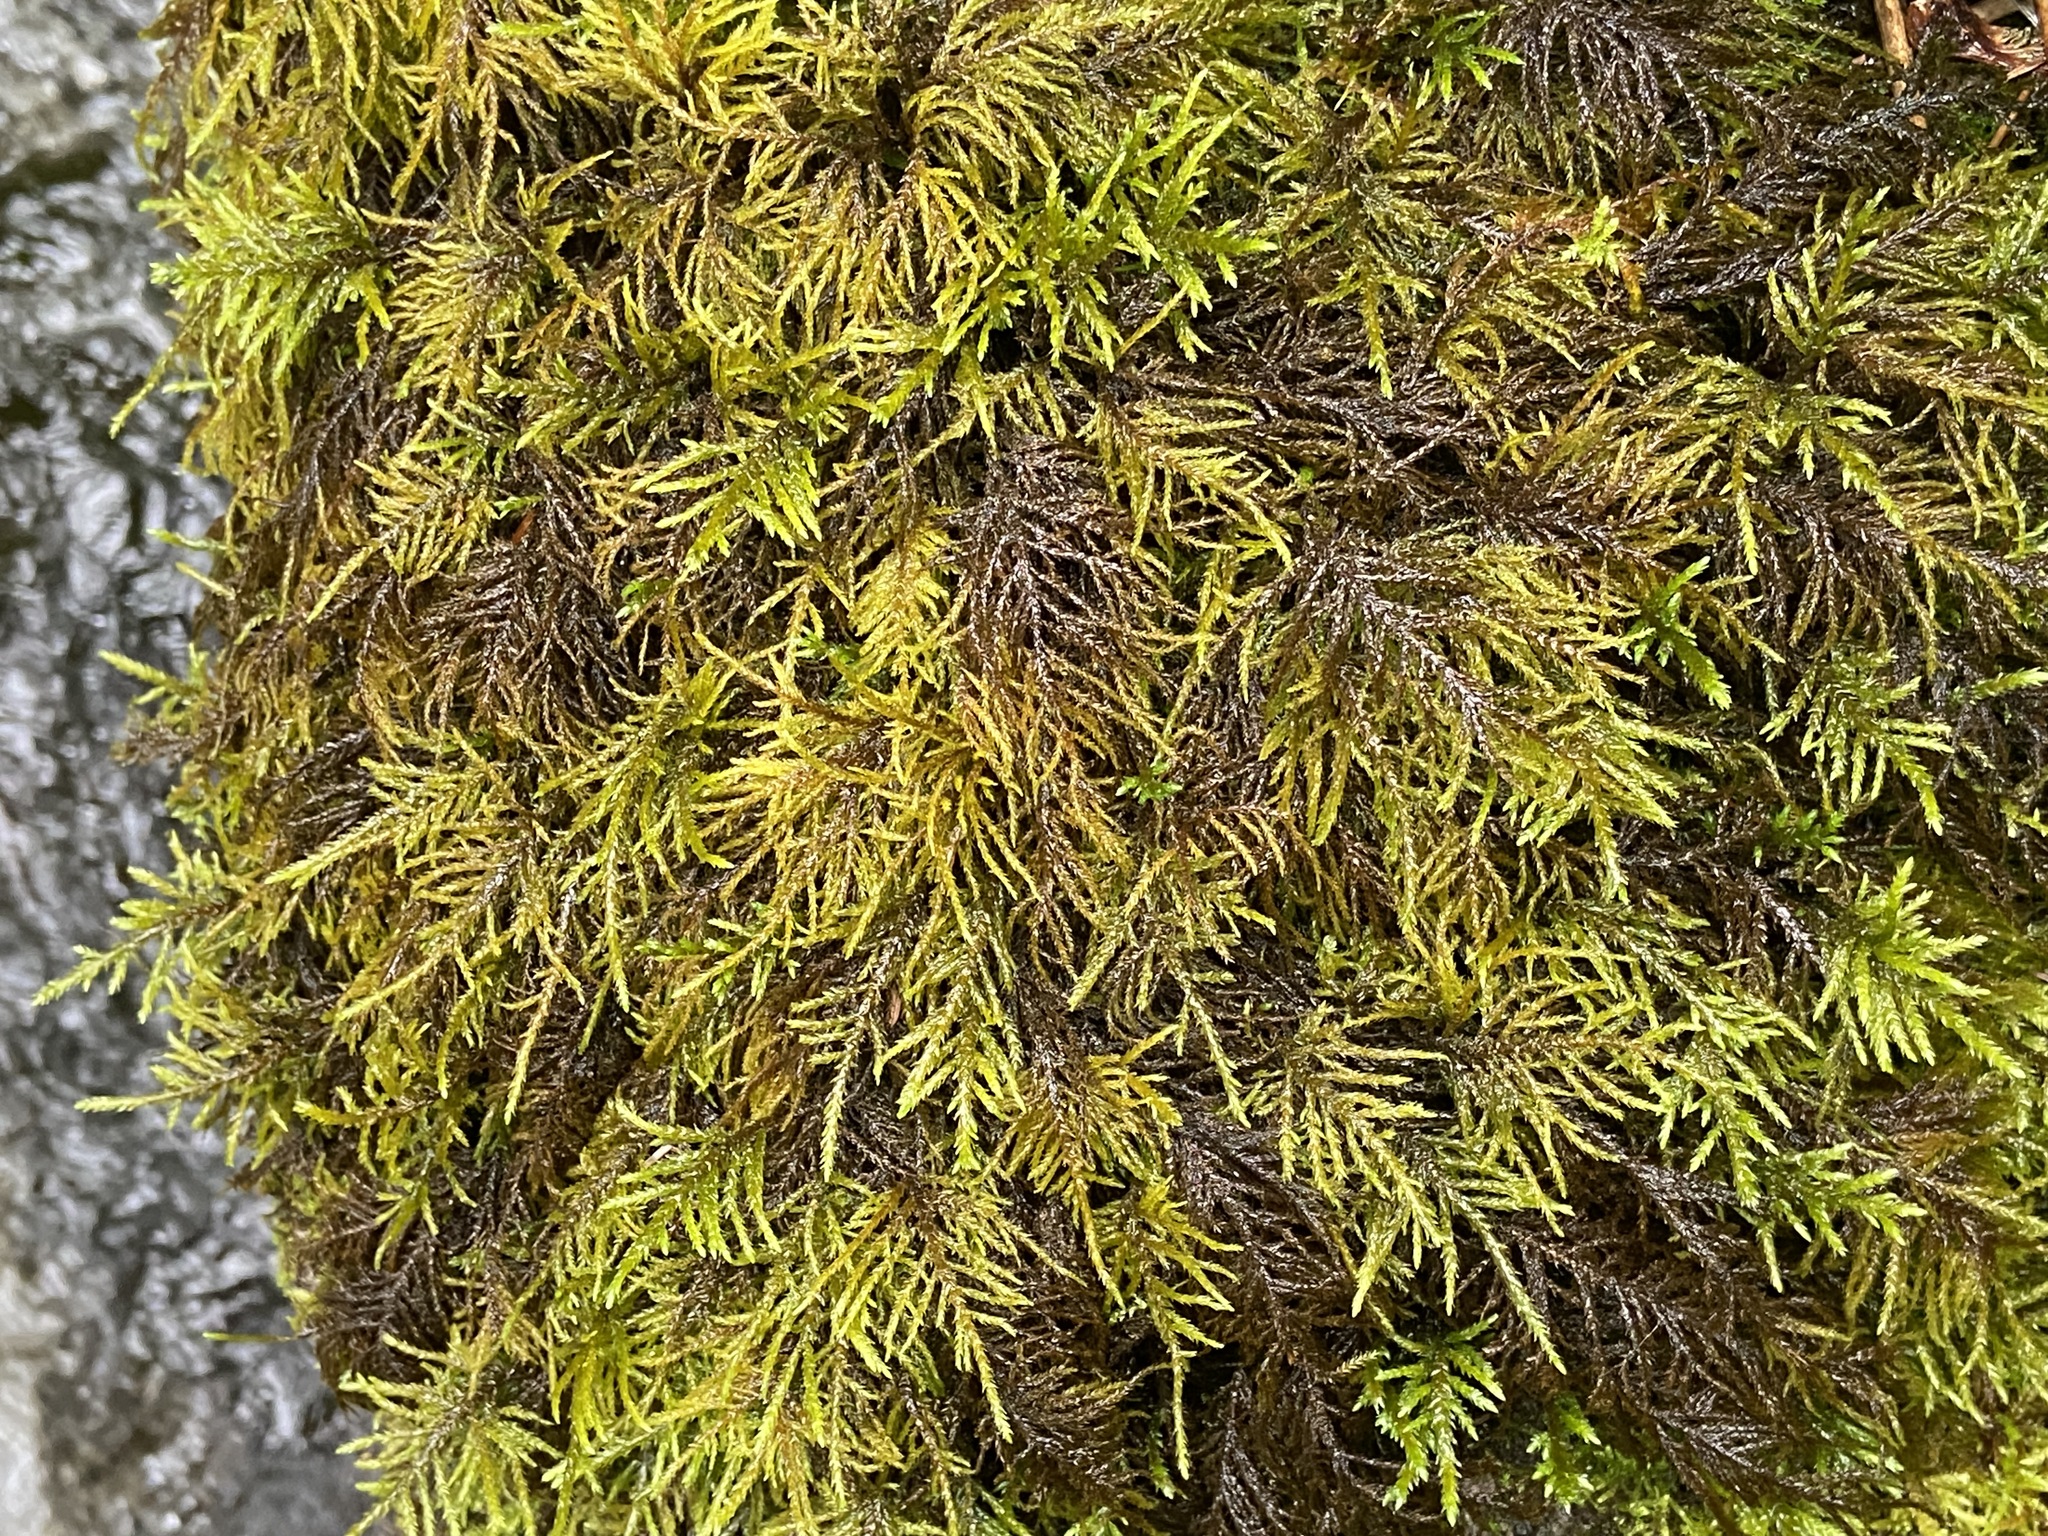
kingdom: Plantae
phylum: Bryophyta
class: Bryopsida
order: Hypnales
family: Myuriaceae
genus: Hyocomium
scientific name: Hyocomium armoricum
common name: Flagellate feather-moss
